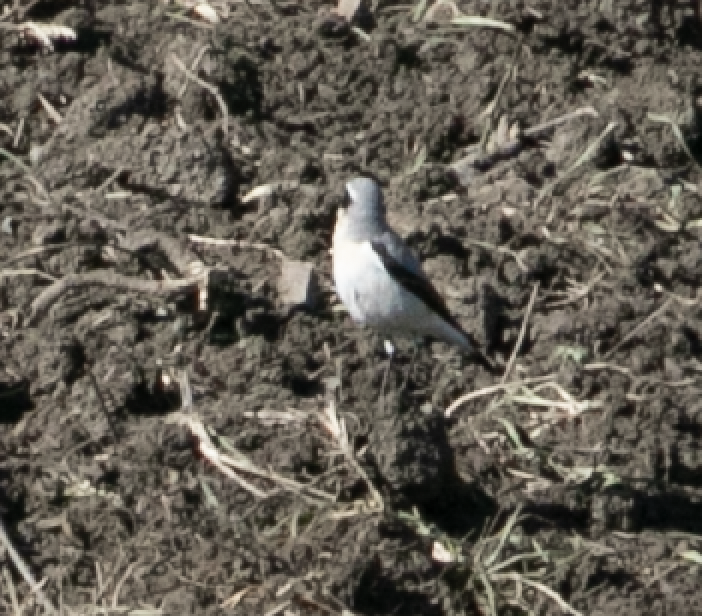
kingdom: Animalia
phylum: Chordata
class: Aves
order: Passeriformes
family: Muscicapidae
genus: Oenanthe
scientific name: Oenanthe oenanthe
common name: Northern wheatear
